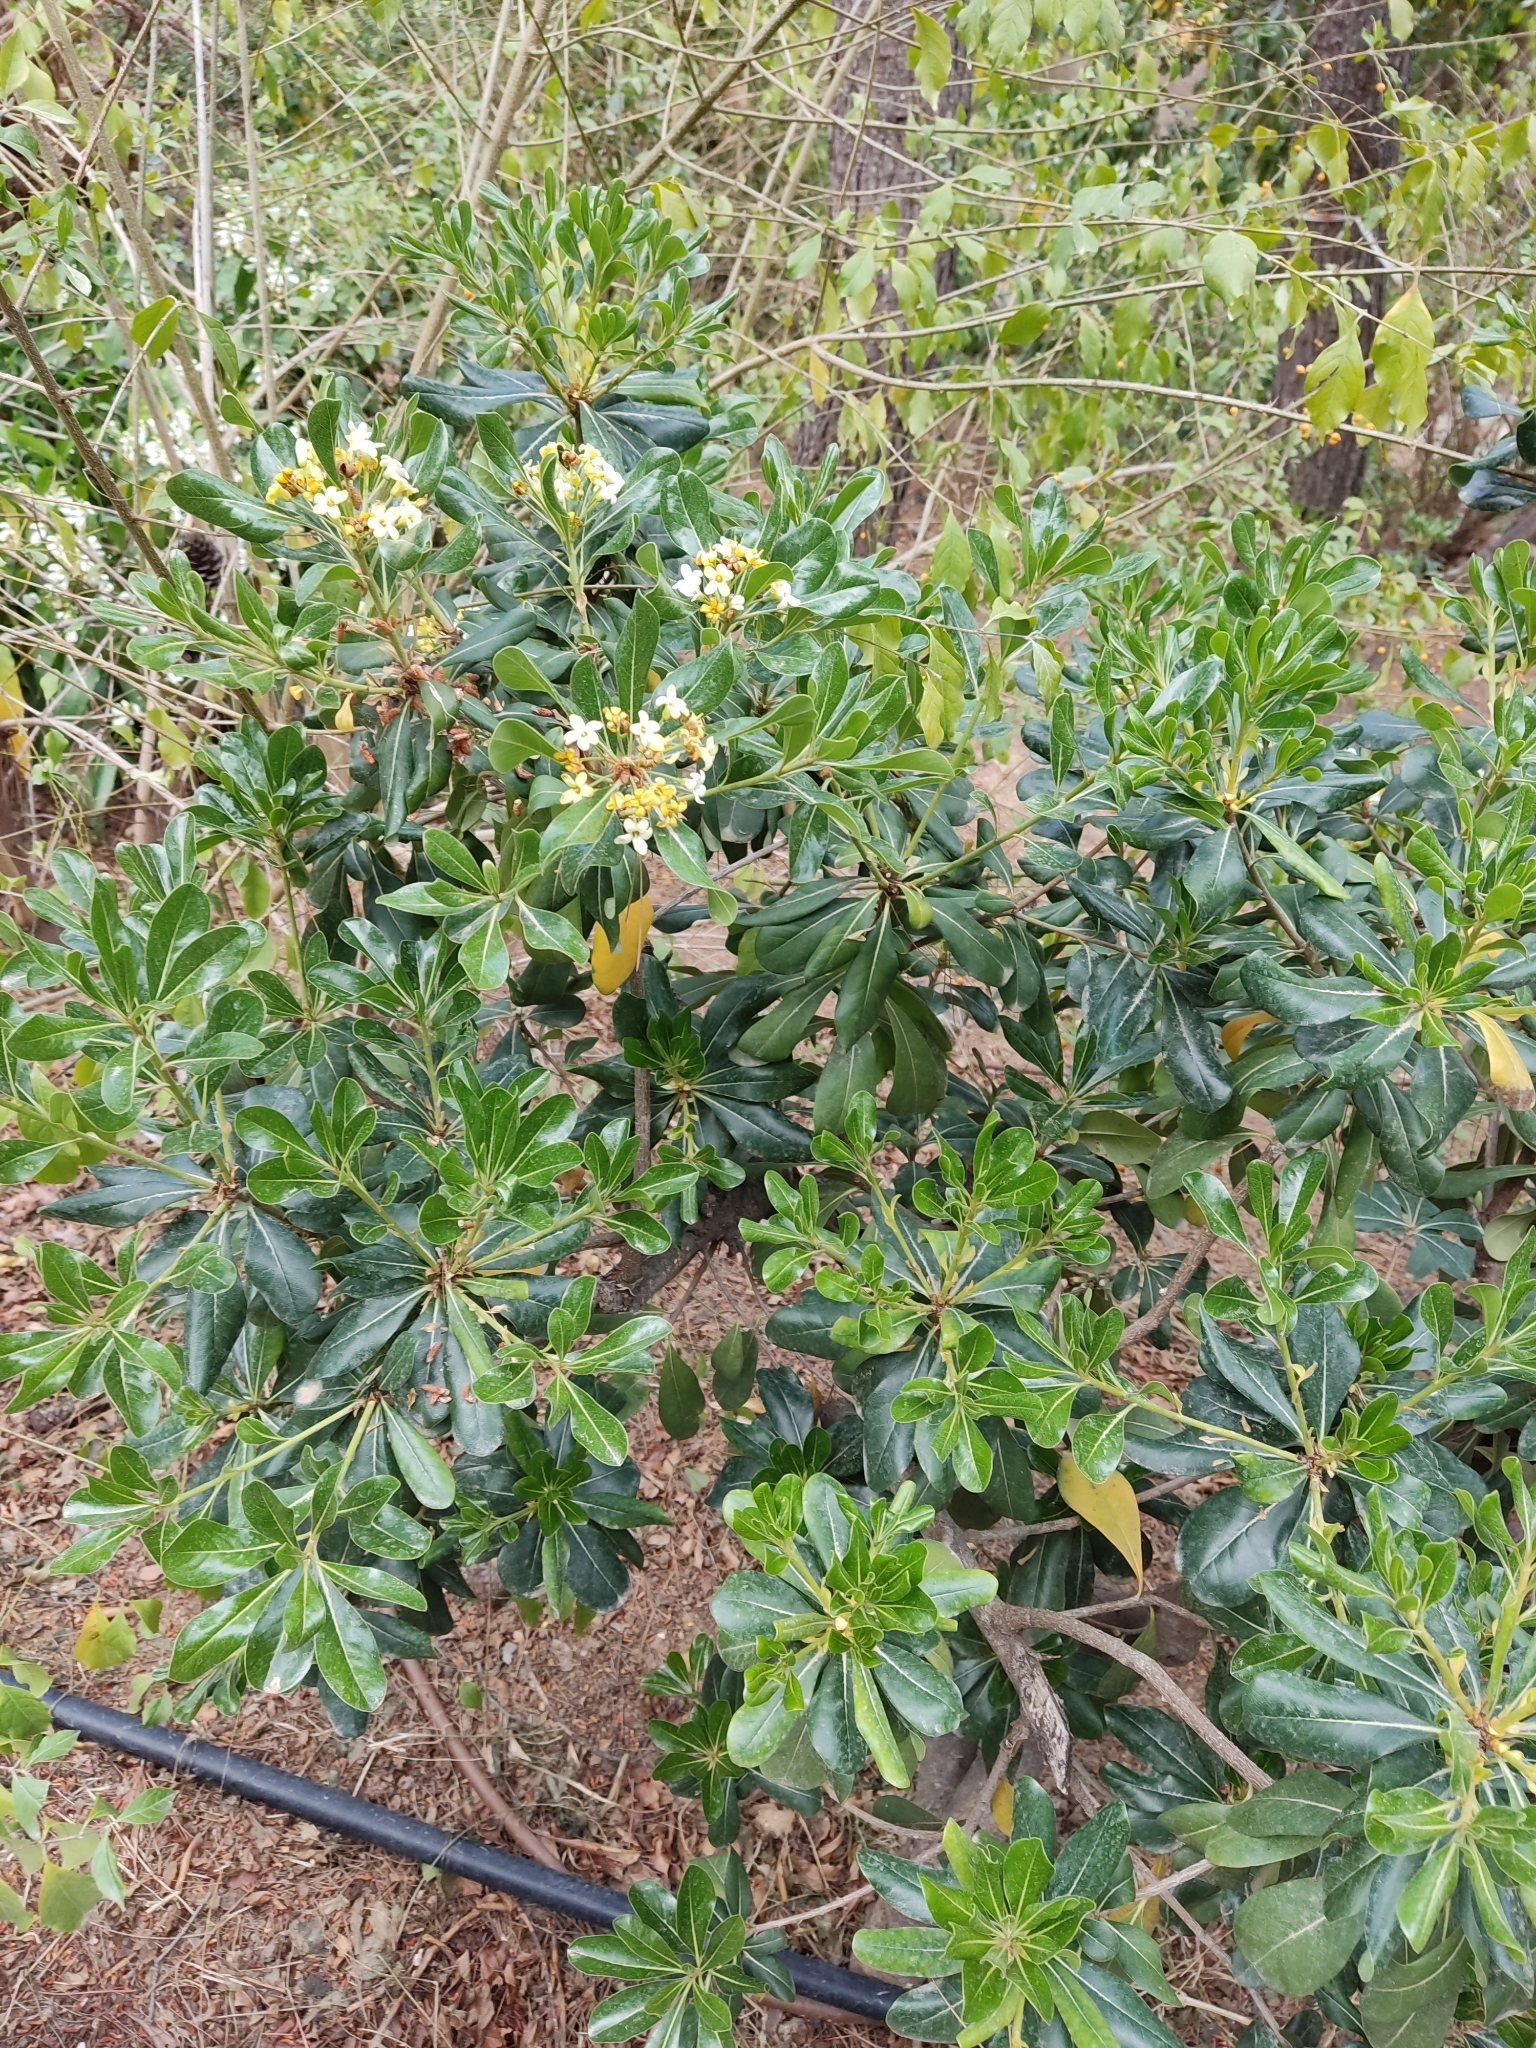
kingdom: Plantae
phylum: Tracheophyta
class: Magnoliopsida
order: Apiales
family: Pittosporaceae
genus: Pittosporum
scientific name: Pittosporum tobira
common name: Japanese cheesewood
